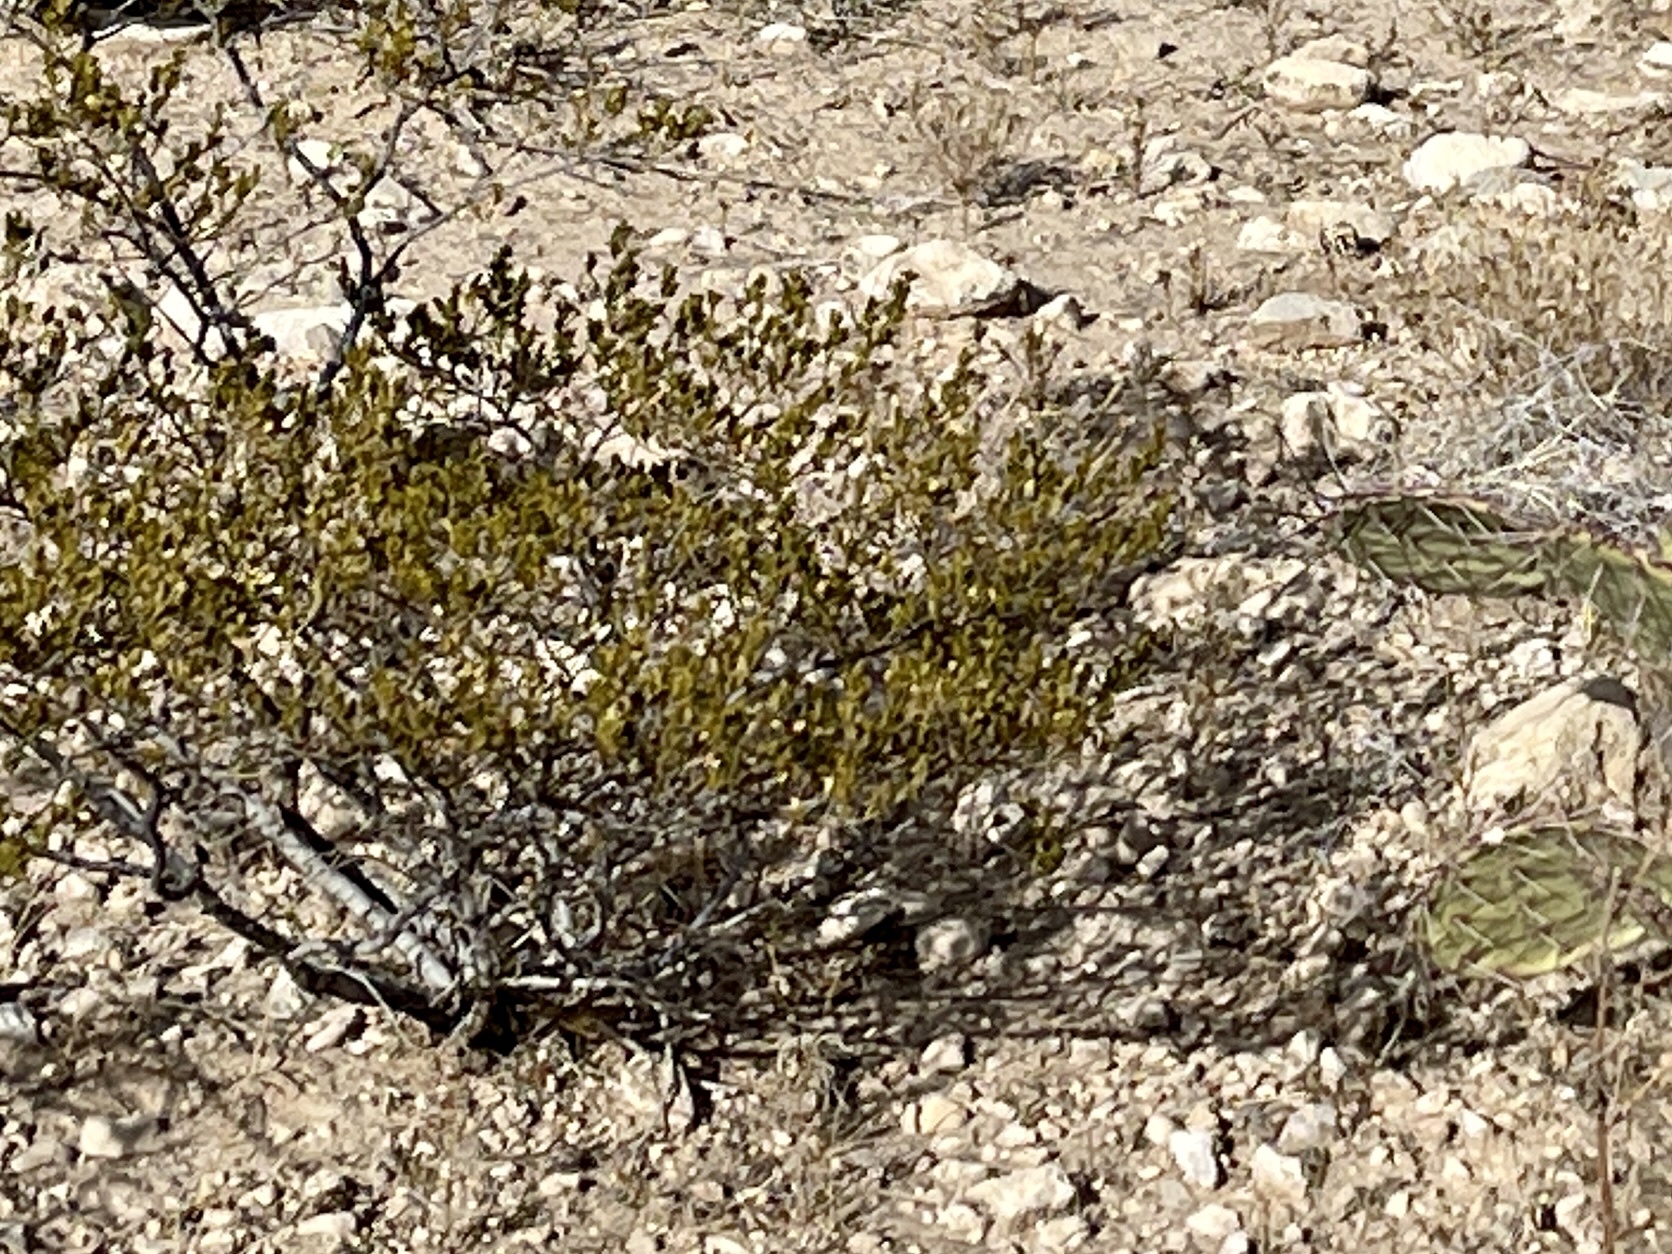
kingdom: Plantae
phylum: Tracheophyta
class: Magnoliopsida
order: Zygophyllales
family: Zygophyllaceae
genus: Larrea
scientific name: Larrea tridentata
